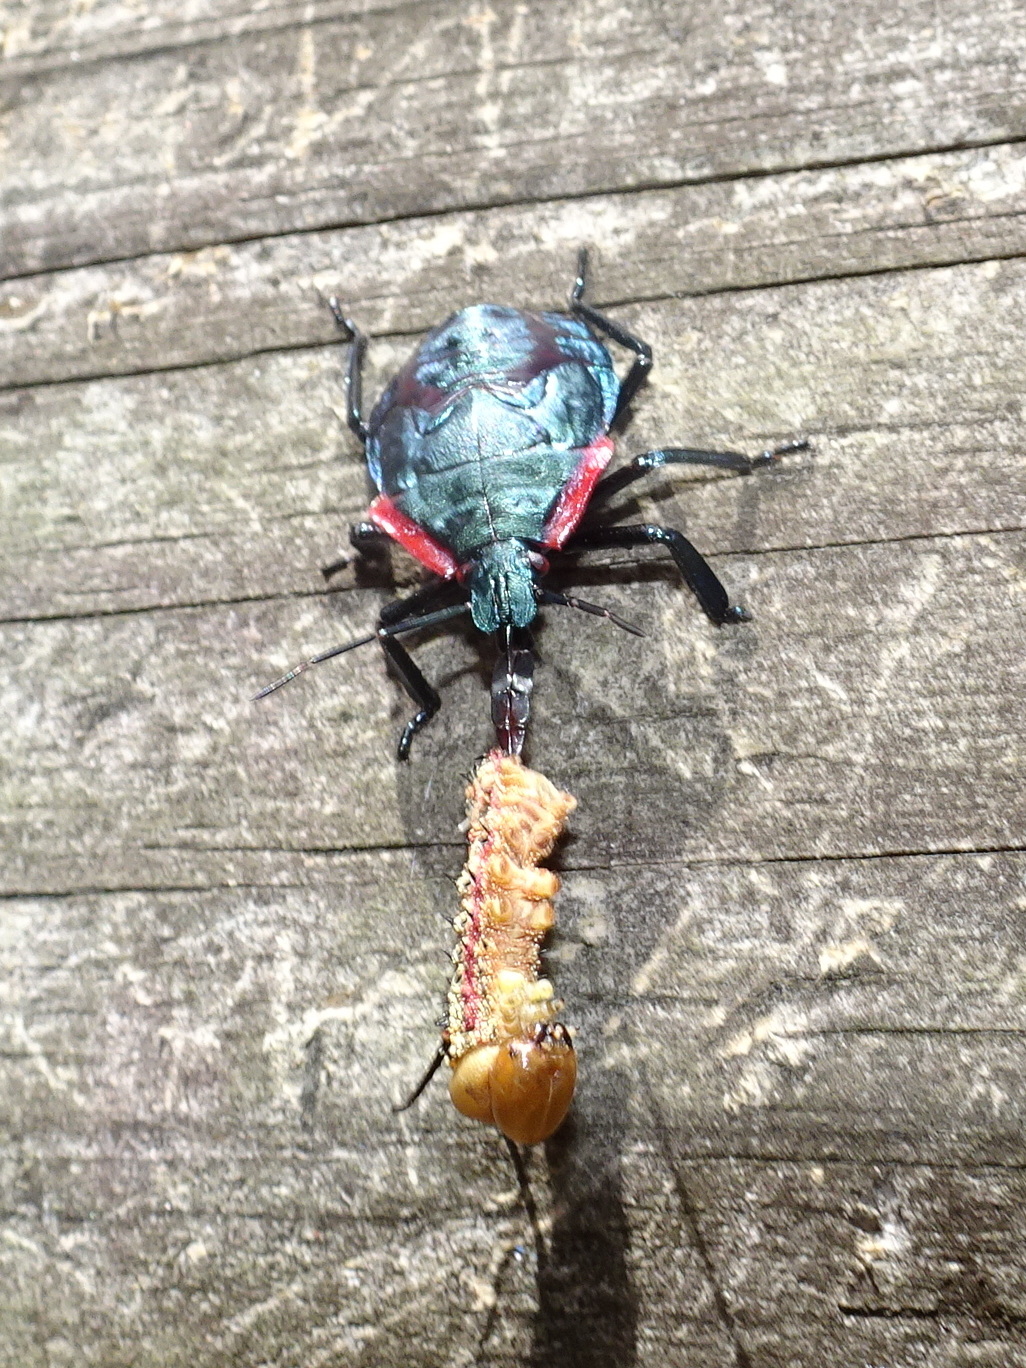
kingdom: Animalia
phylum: Arthropoda
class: Insecta
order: Hemiptera
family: Pentatomidae
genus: Alcaeorrhynchus
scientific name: Alcaeorrhynchus grandis
